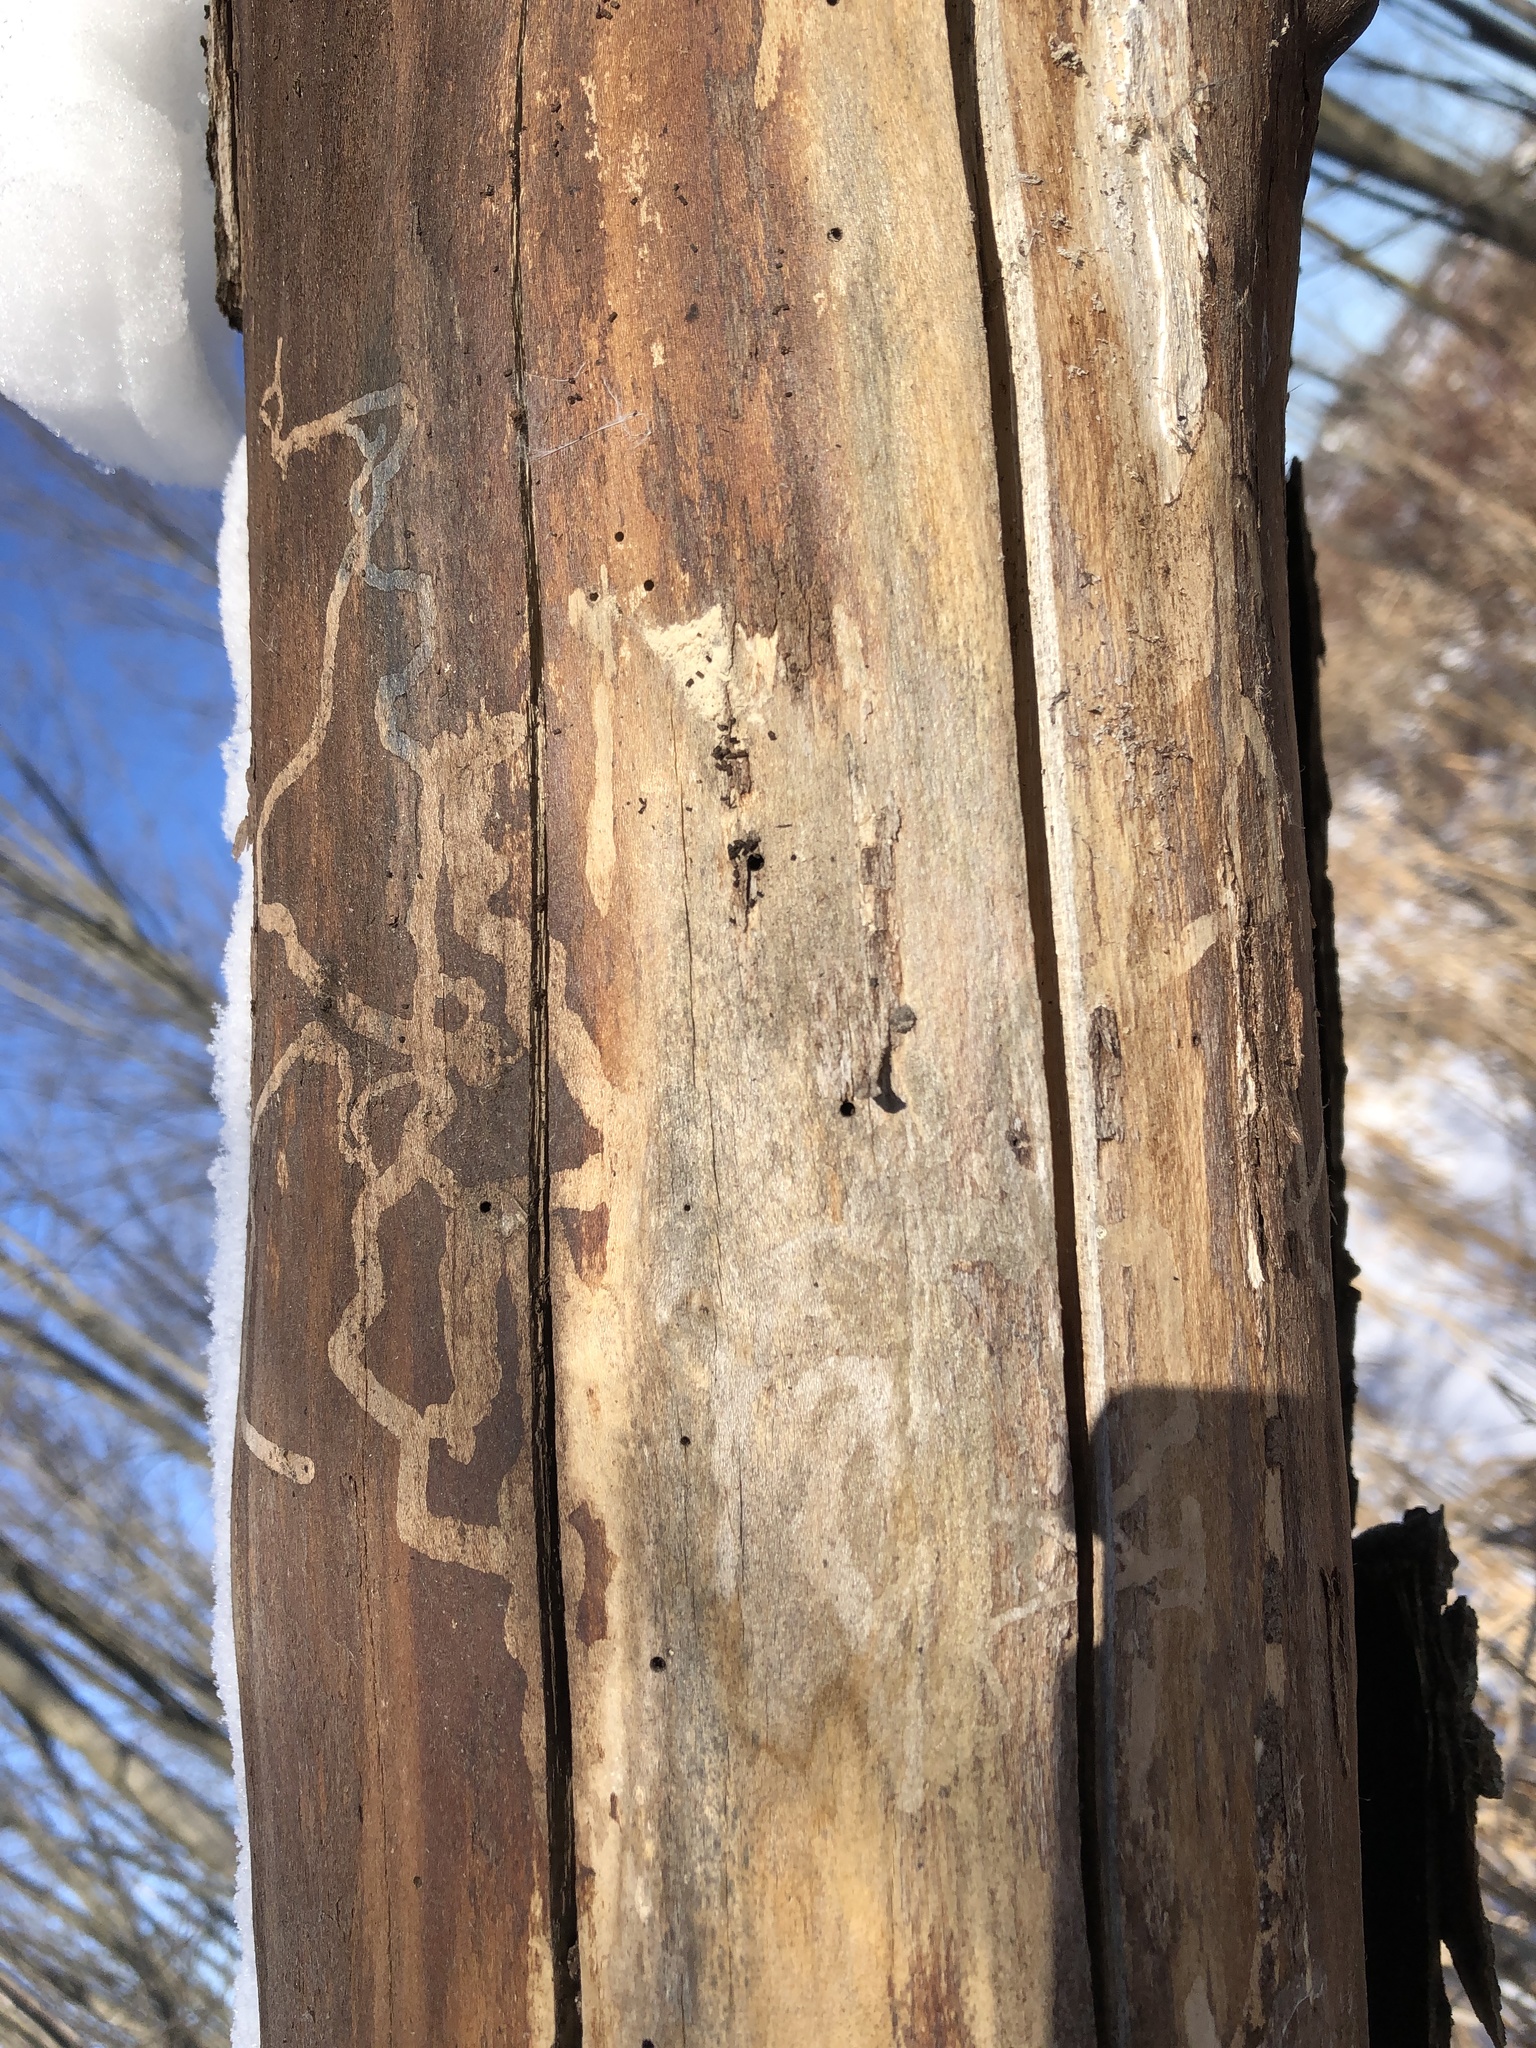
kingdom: Animalia
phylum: Arthropoda
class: Insecta
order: Coleoptera
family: Buprestidae
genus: Agrilus
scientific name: Agrilus planipennis
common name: Emerald ash borer
